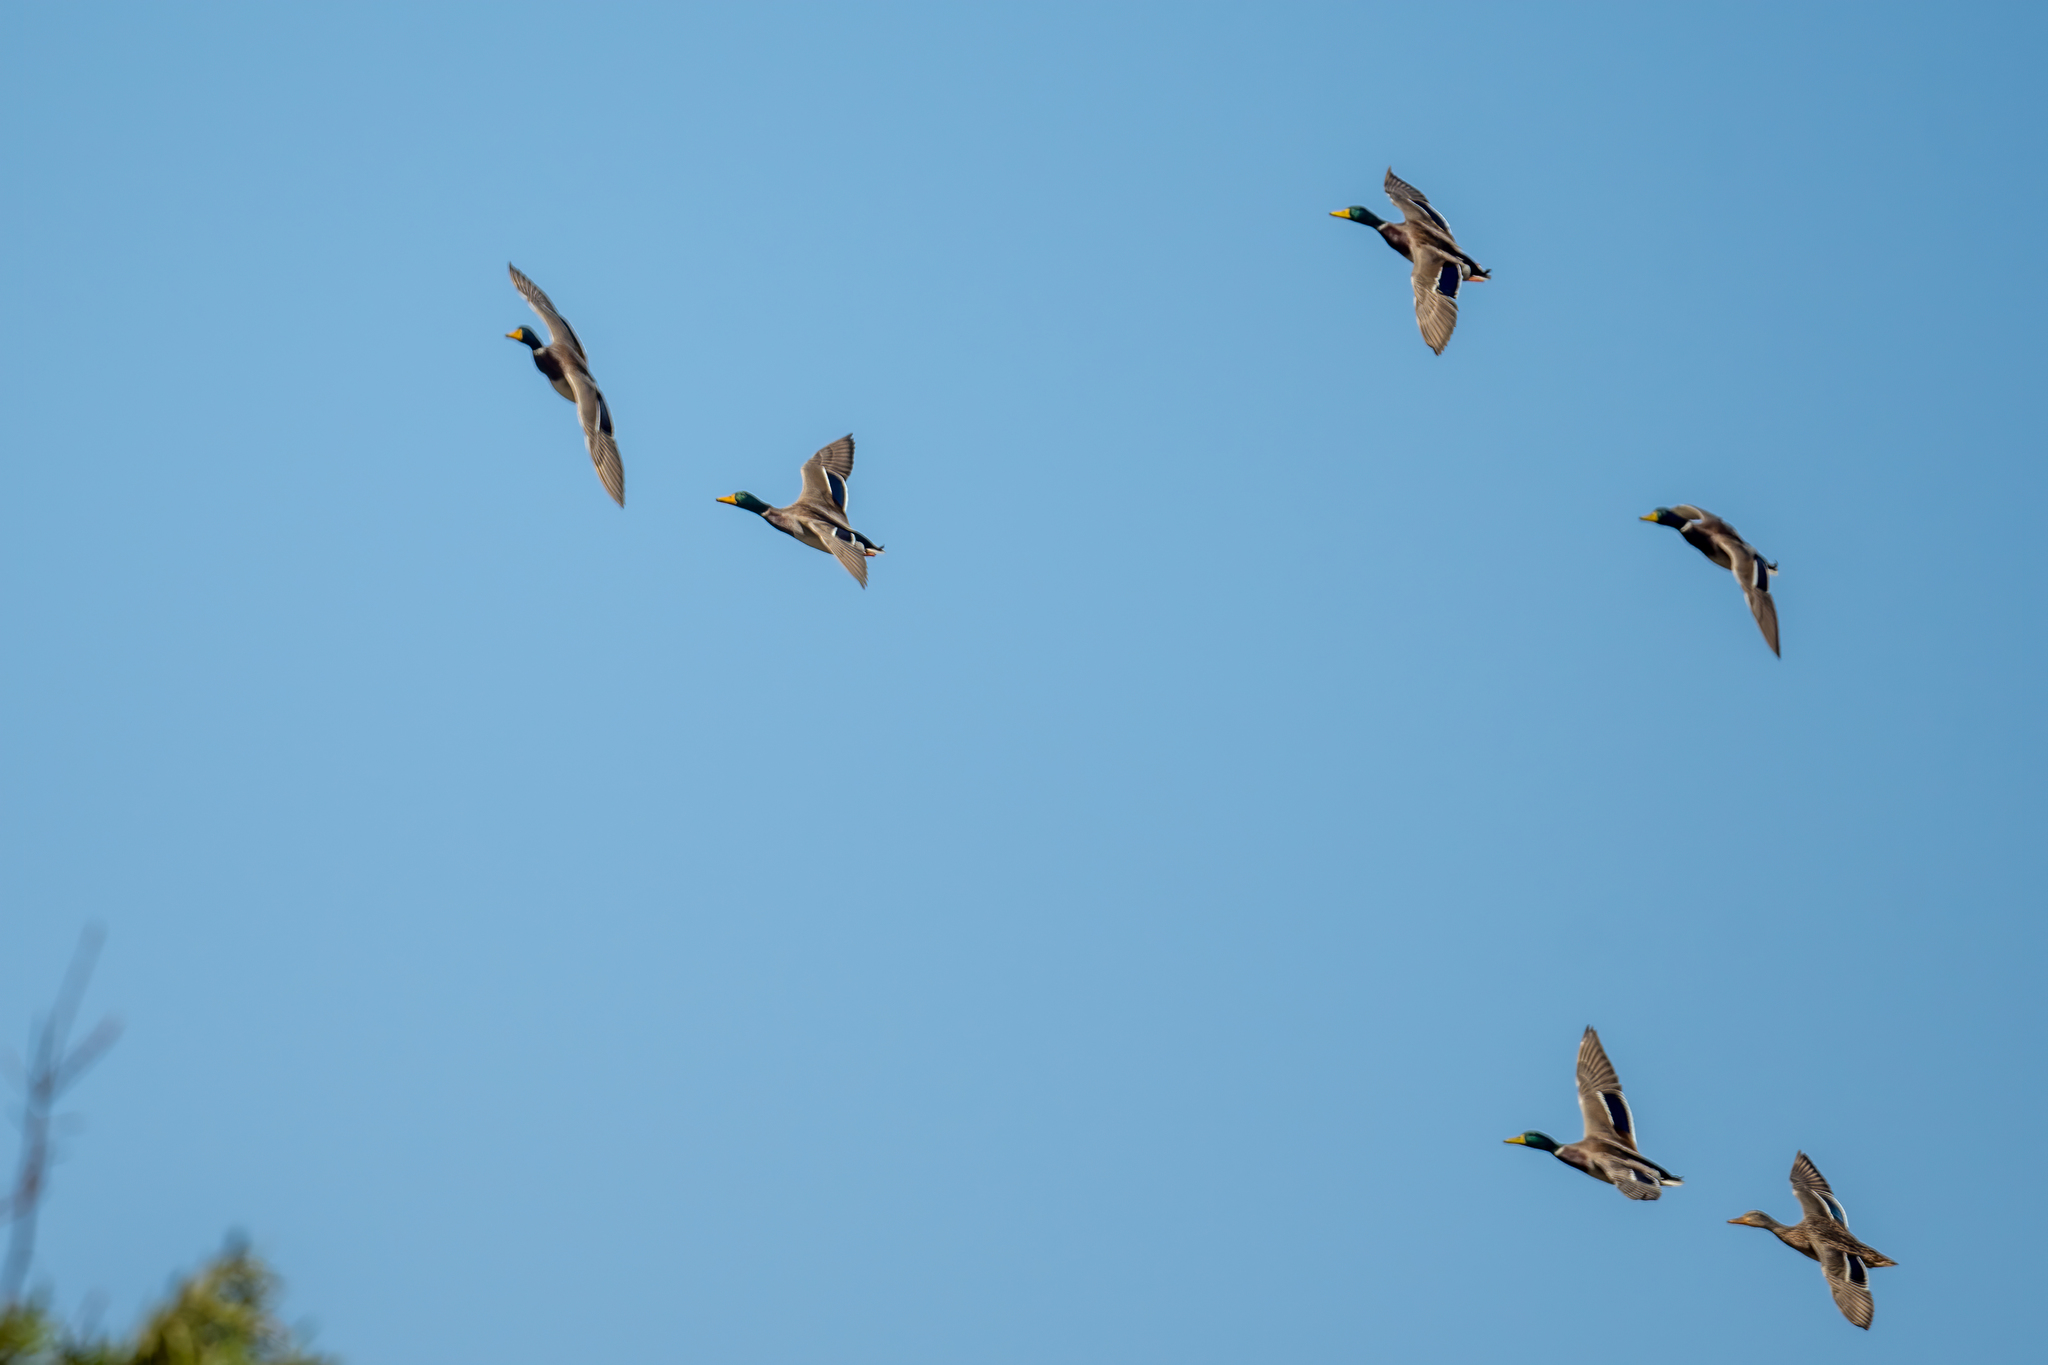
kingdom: Animalia
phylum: Chordata
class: Aves
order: Anseriformes
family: Anatidae
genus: Anas
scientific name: Anas platyrhynchos
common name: Mallard
